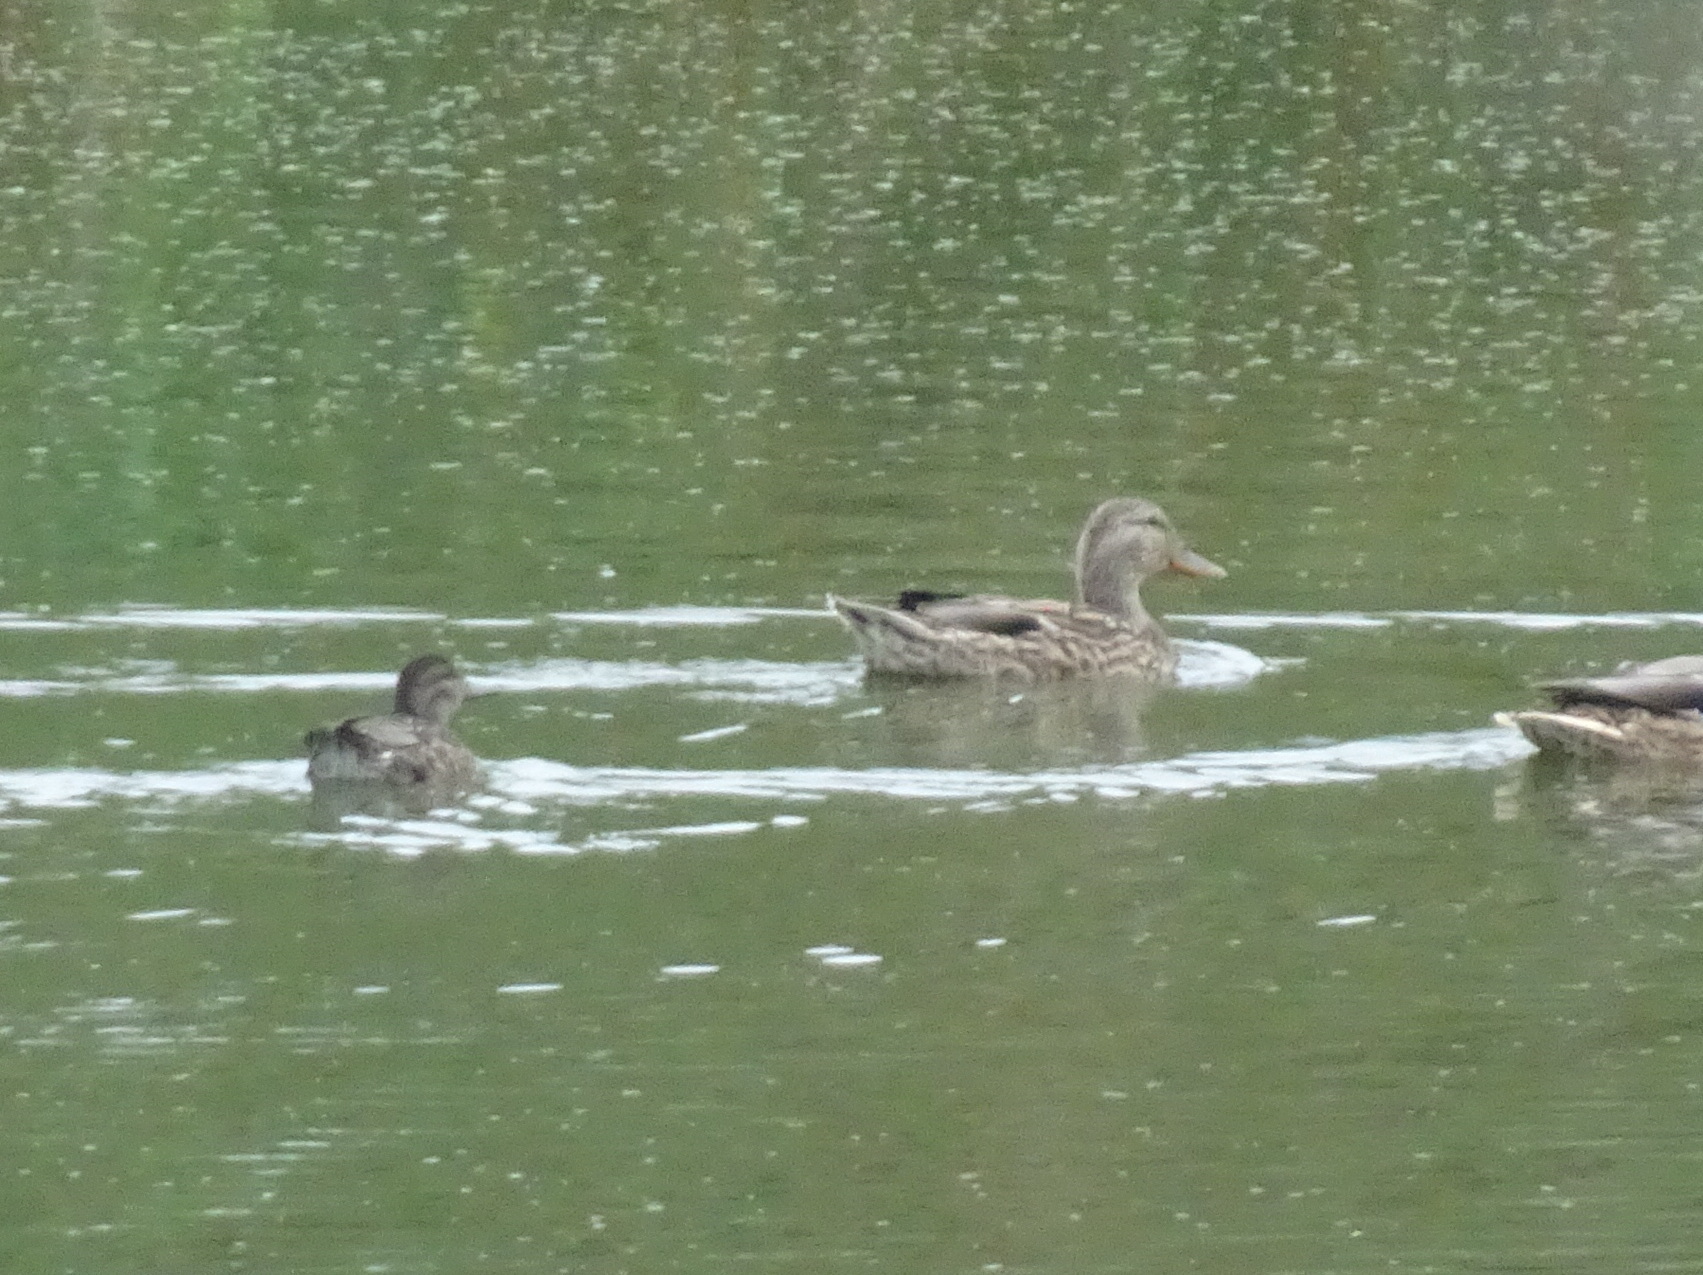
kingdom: Animalia
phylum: Chordata
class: Aves
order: Anseriformes
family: Anatidae
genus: Anas
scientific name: Anas crecca
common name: Eurasian teal
